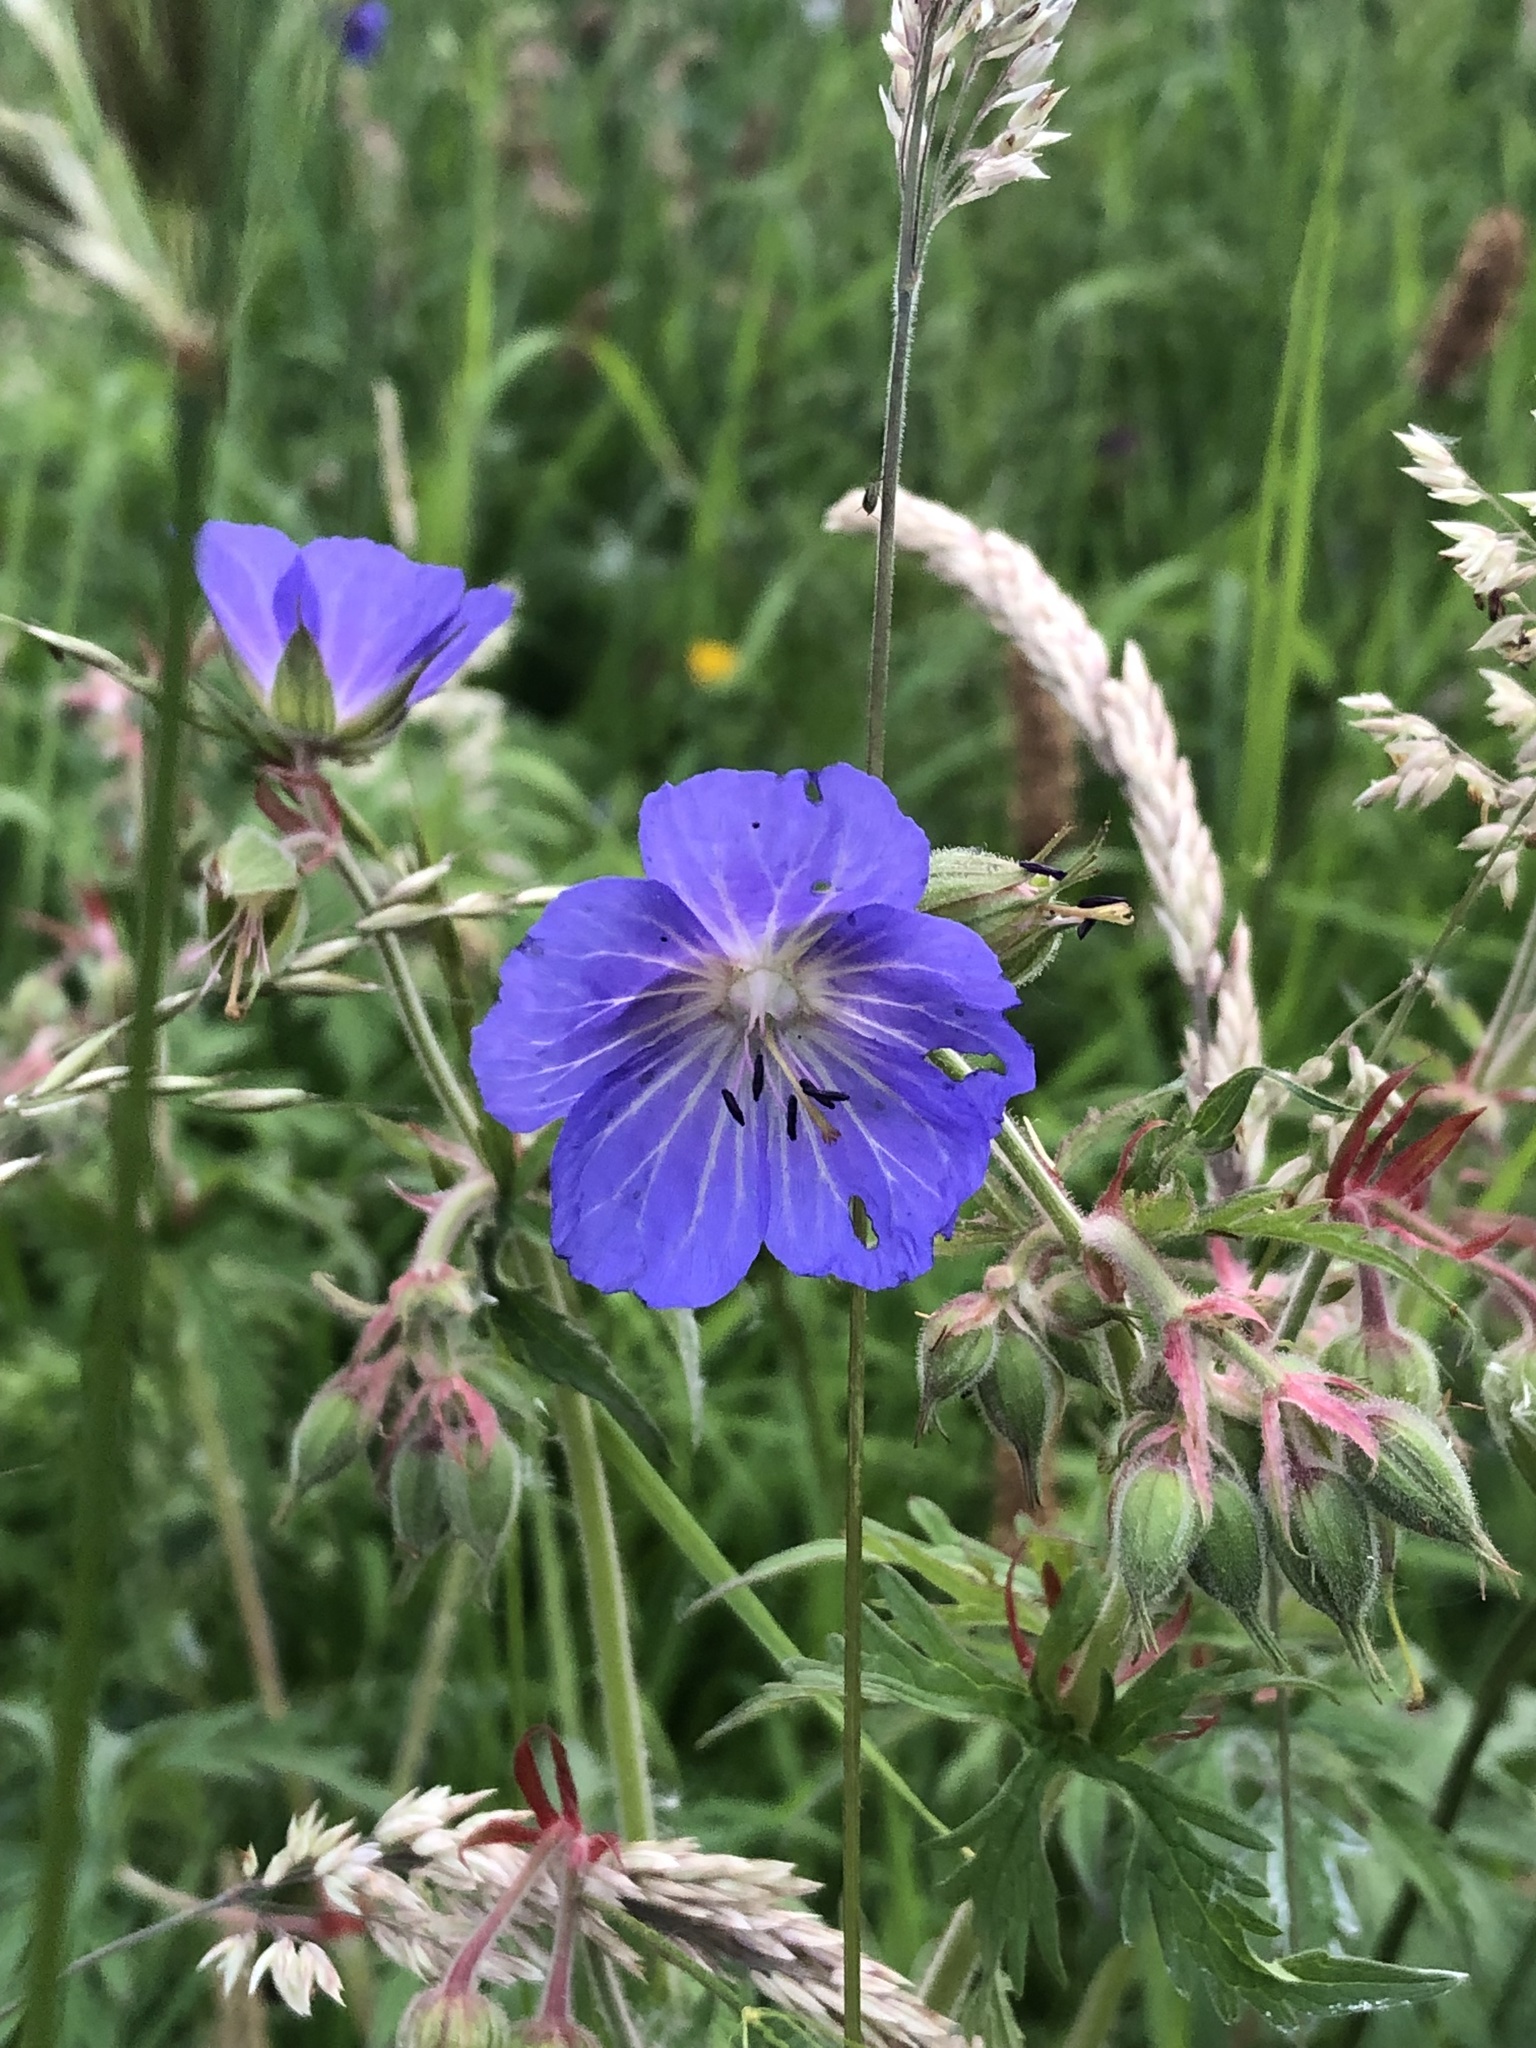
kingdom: Plantae
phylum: Tracheophyta
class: Magnoliopsida
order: Geraniales
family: Geraniaceae
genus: Geranium
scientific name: Geranium pratense
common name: Meadow crane's-bill
